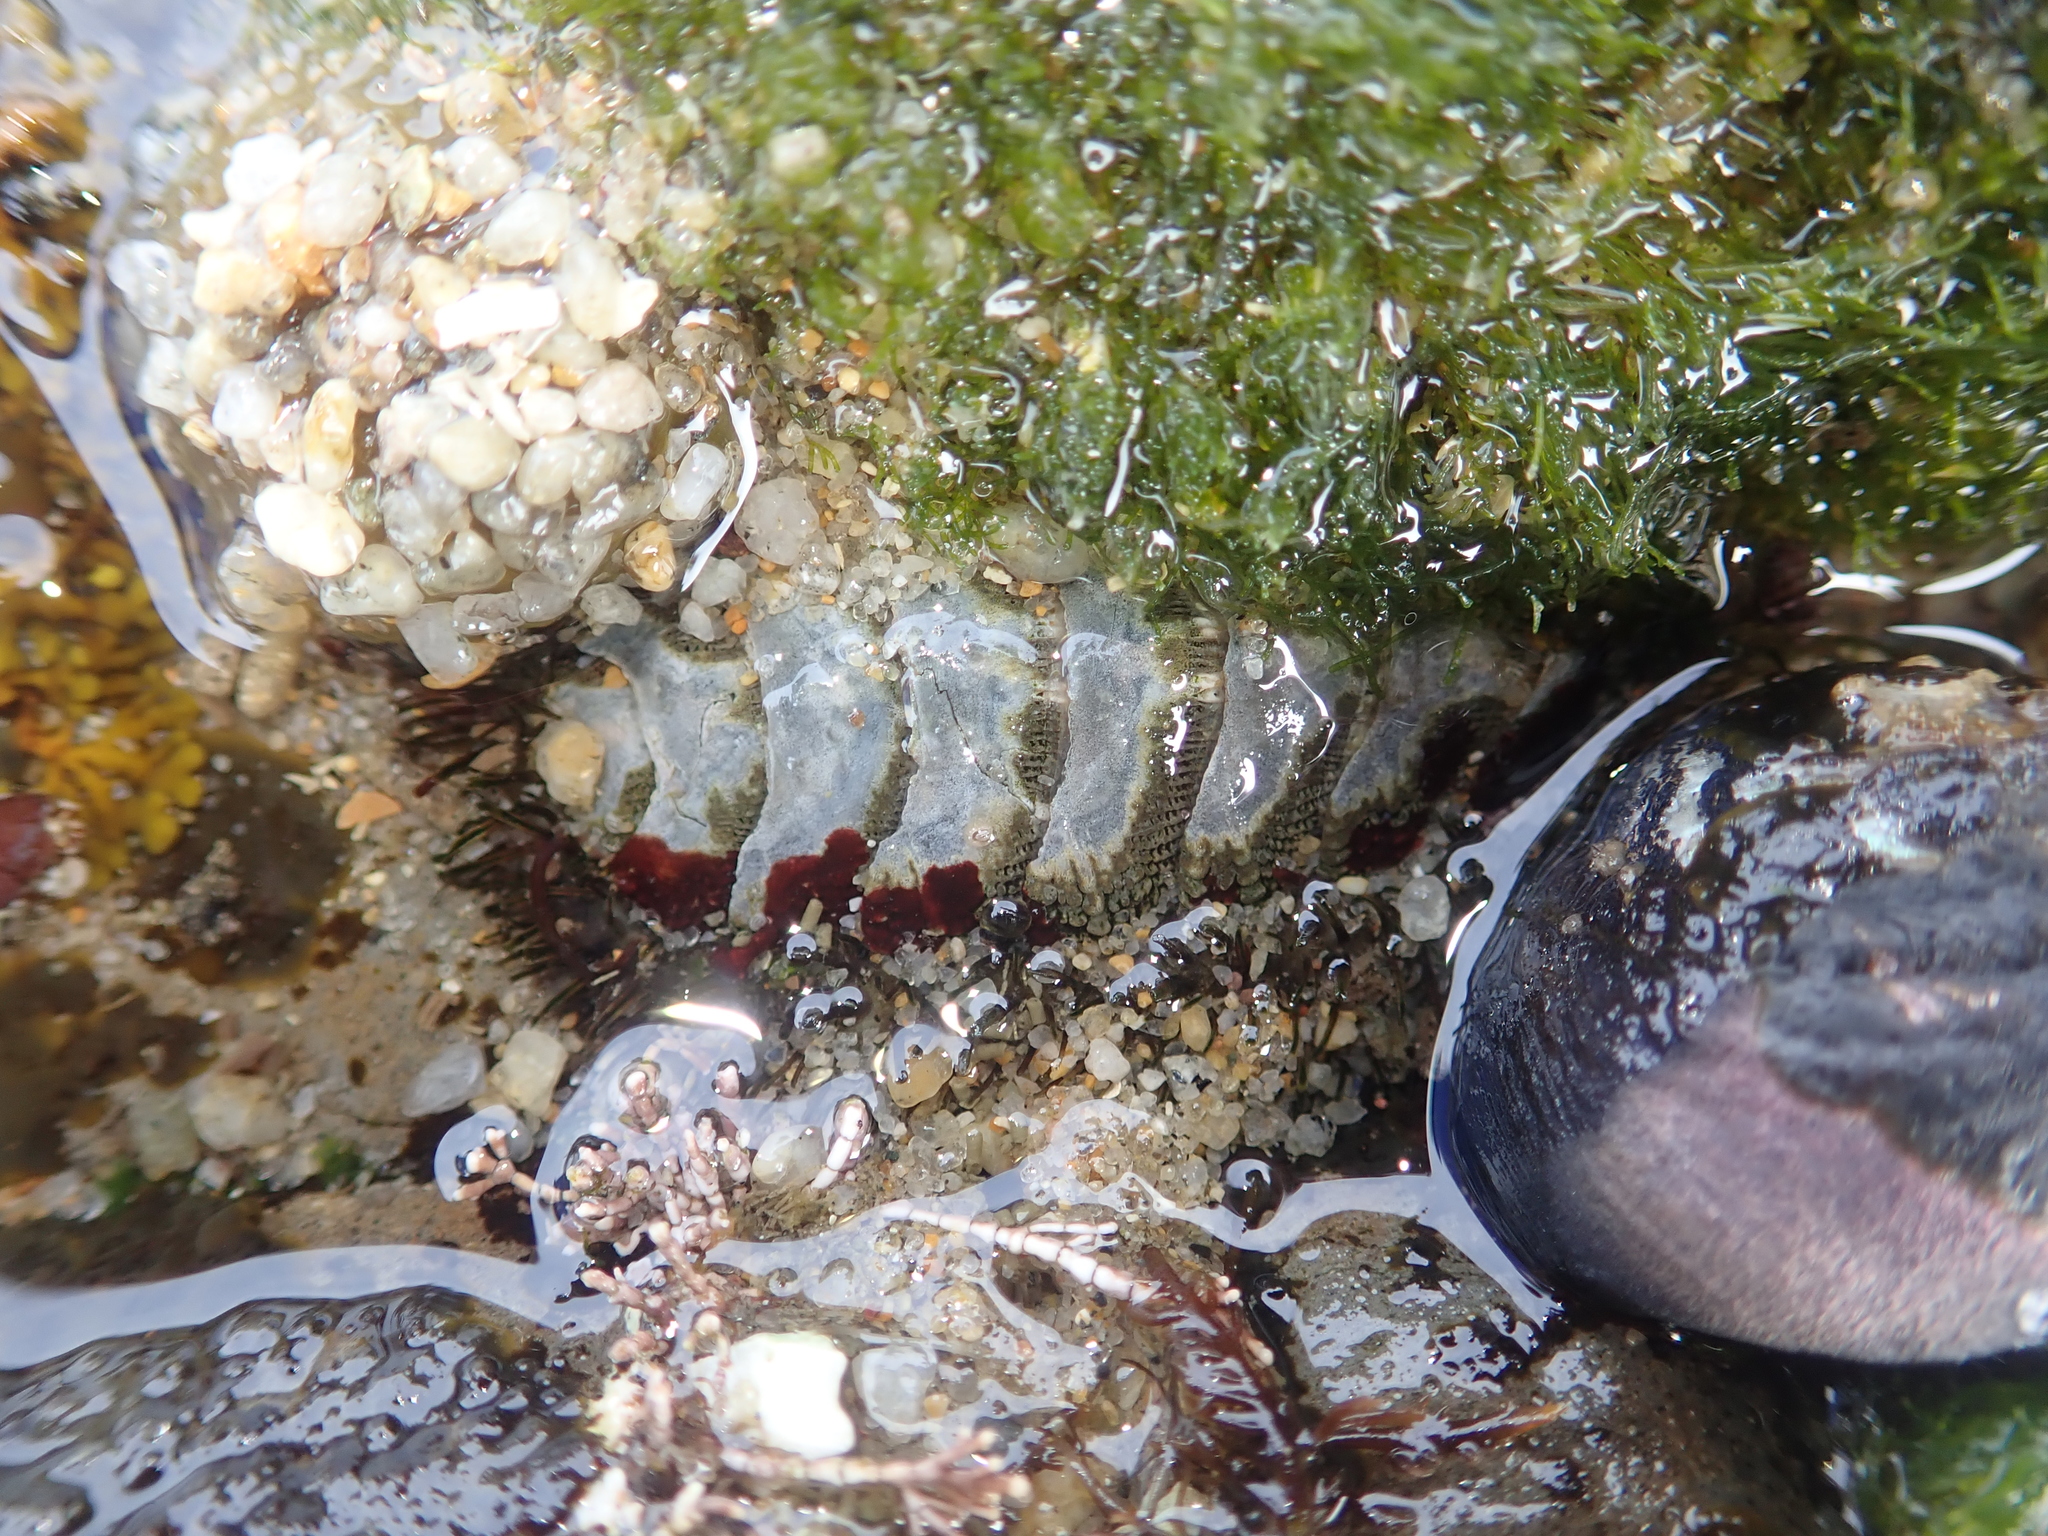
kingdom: Animalia
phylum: Mollusca
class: Polyplacophora
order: Chitonida
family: Mopaliidae
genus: Mopalia
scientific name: Mopalia muscosa
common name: Mossy chiton
